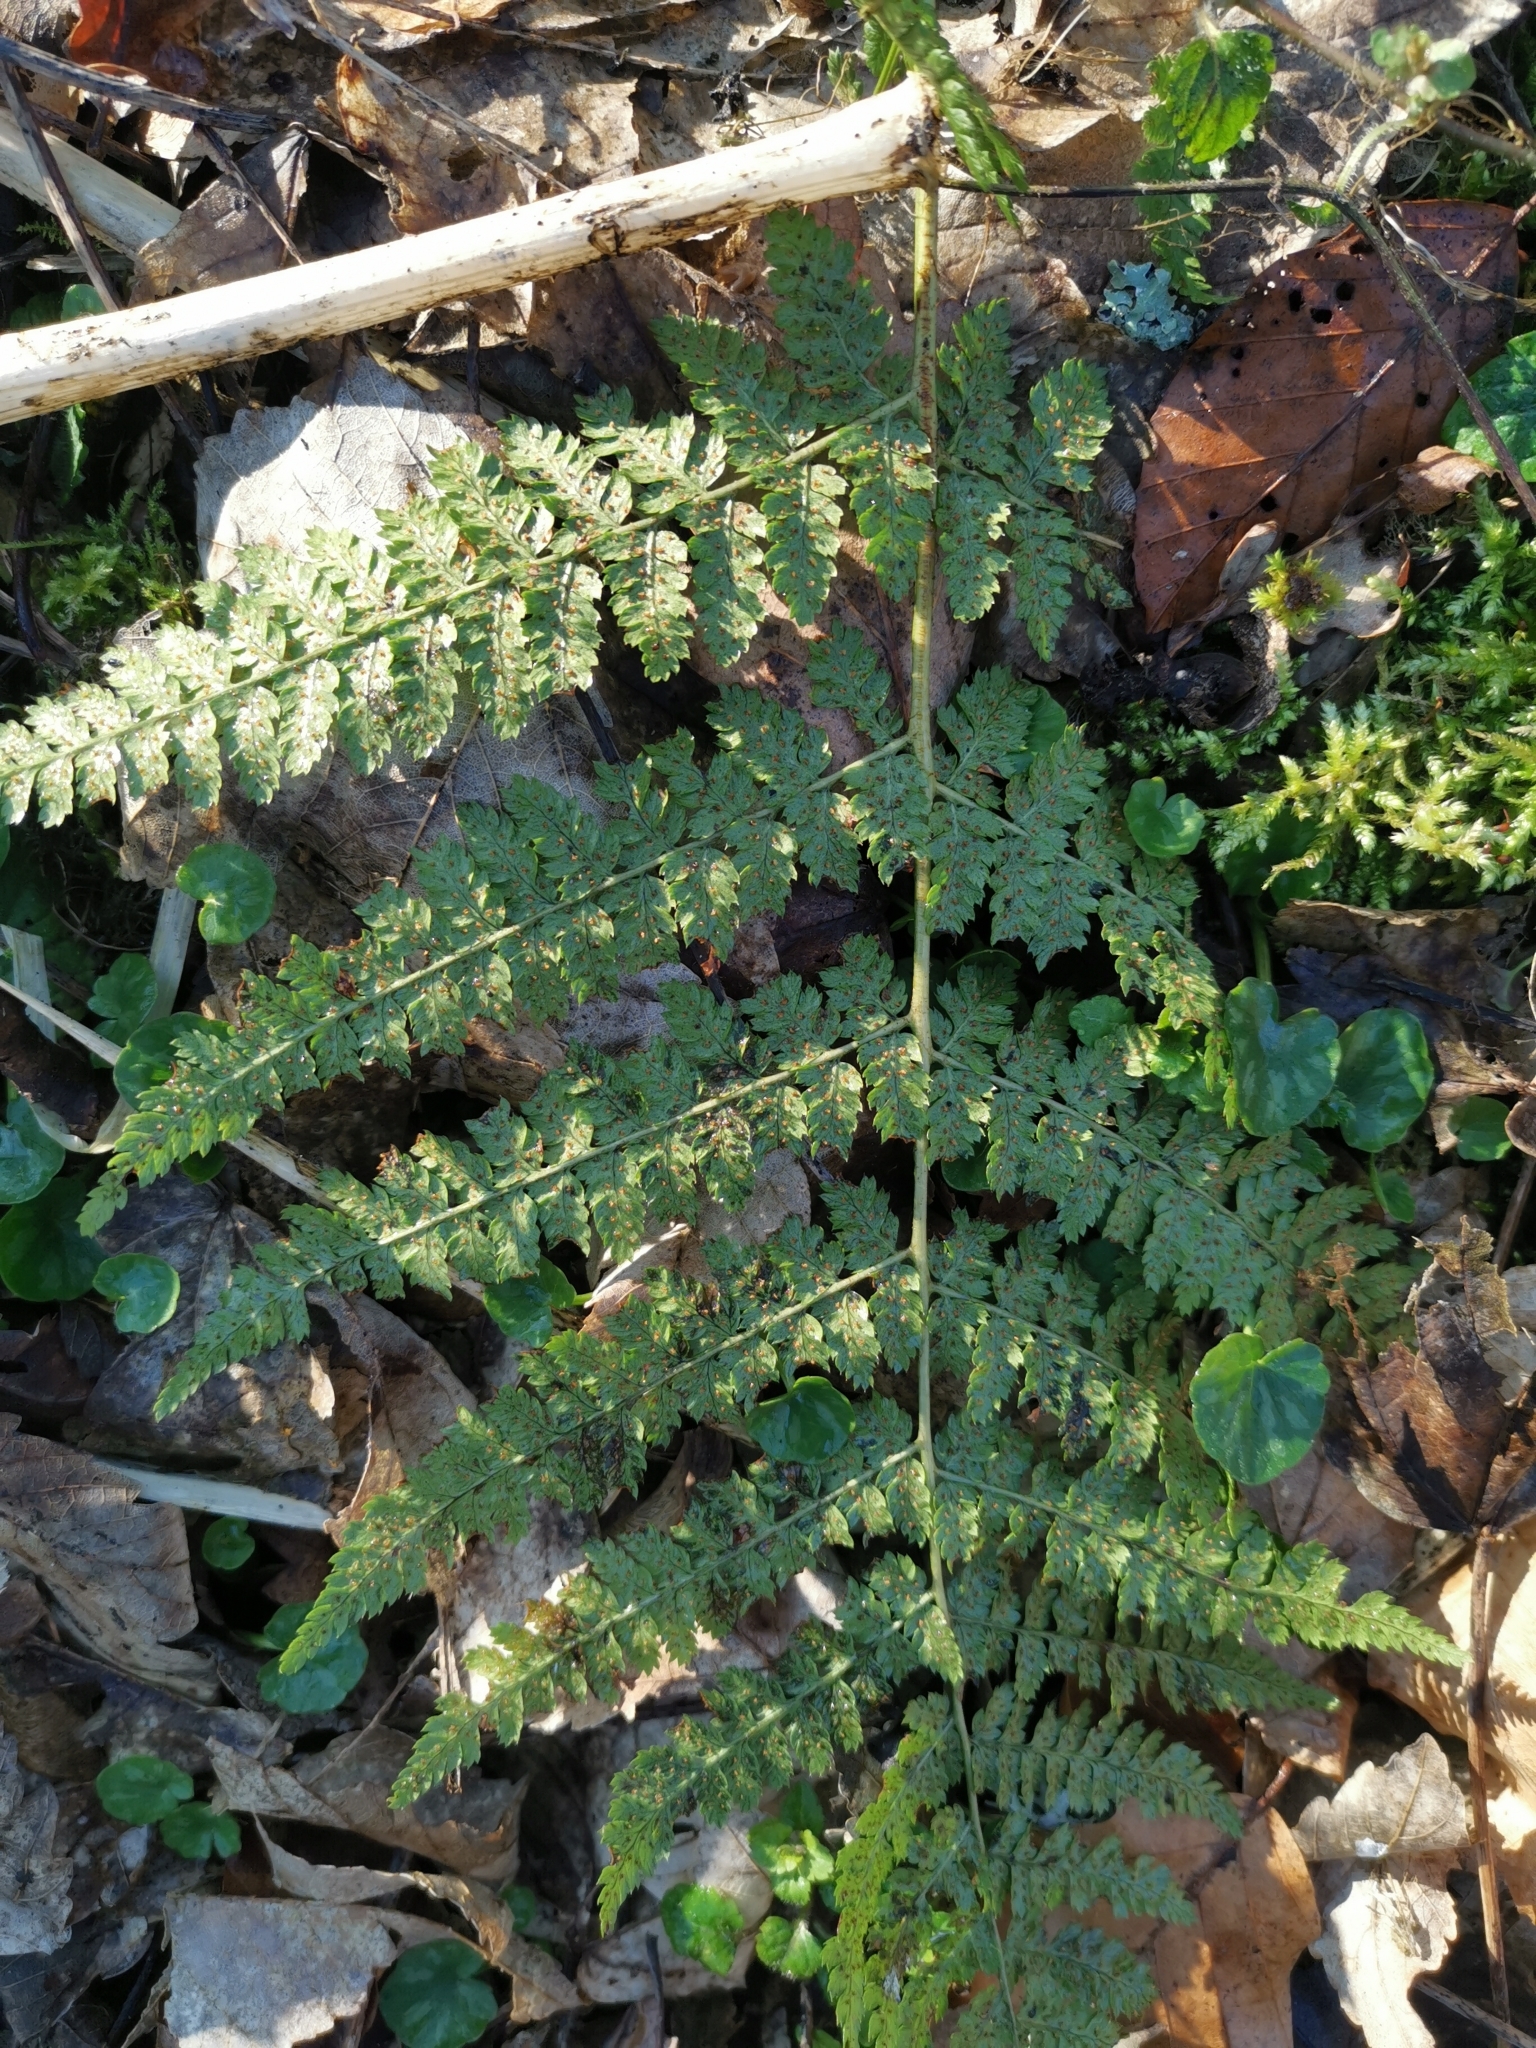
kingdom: Plantae
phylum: Tracheophyta
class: Polypodiopsida
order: Polypodiales
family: Dryopteridaceae
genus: Dryopteris
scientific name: Dryopteris dilatata
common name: Broad buckler-fern
